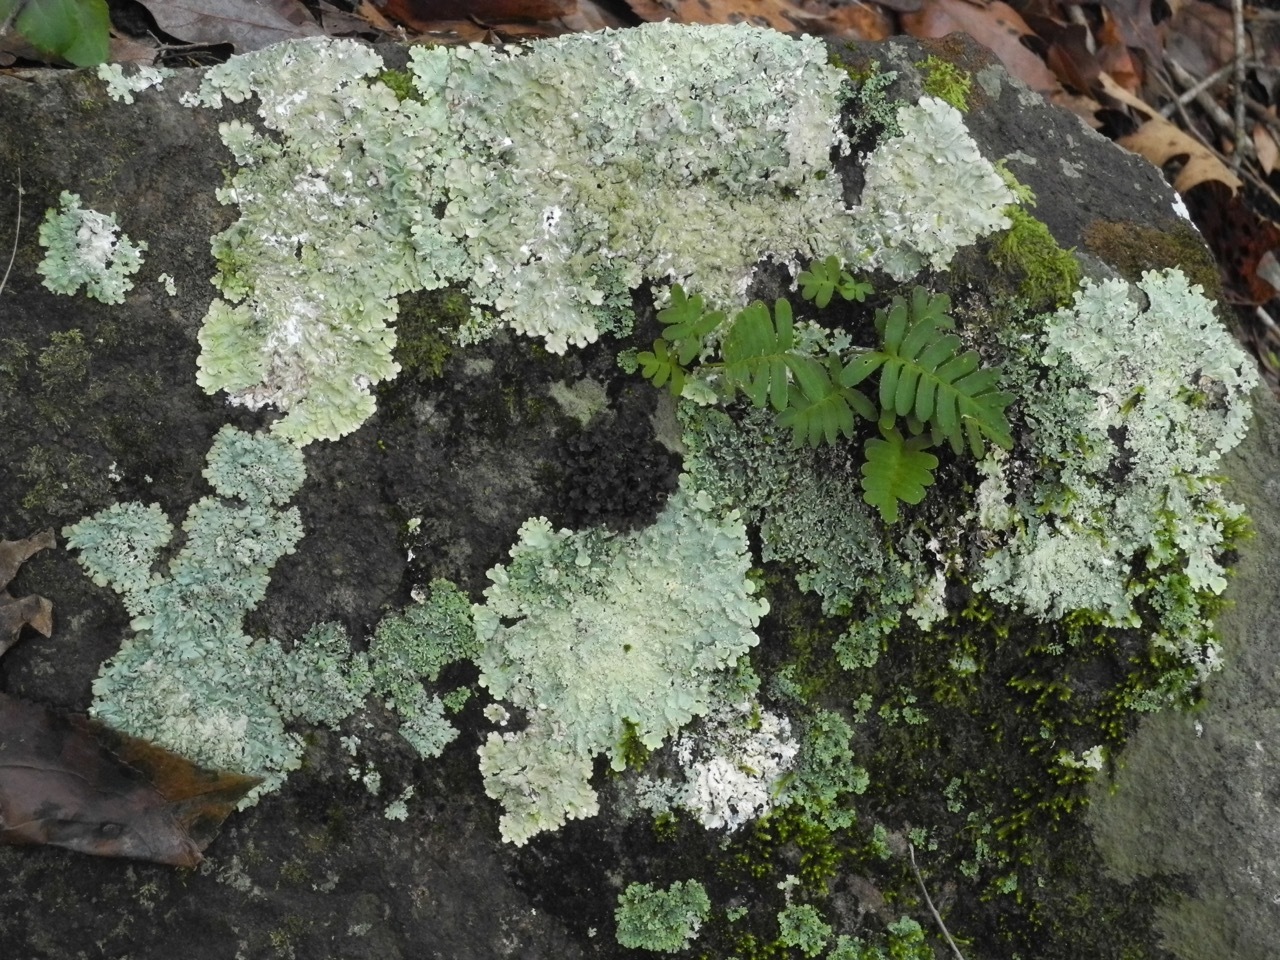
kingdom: Plantae
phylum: Tracheophyta
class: Polypodiopsida
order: Polypodiales
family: Polypodiaceae
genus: Pleopeltis
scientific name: Pleopeltis michauxiana
